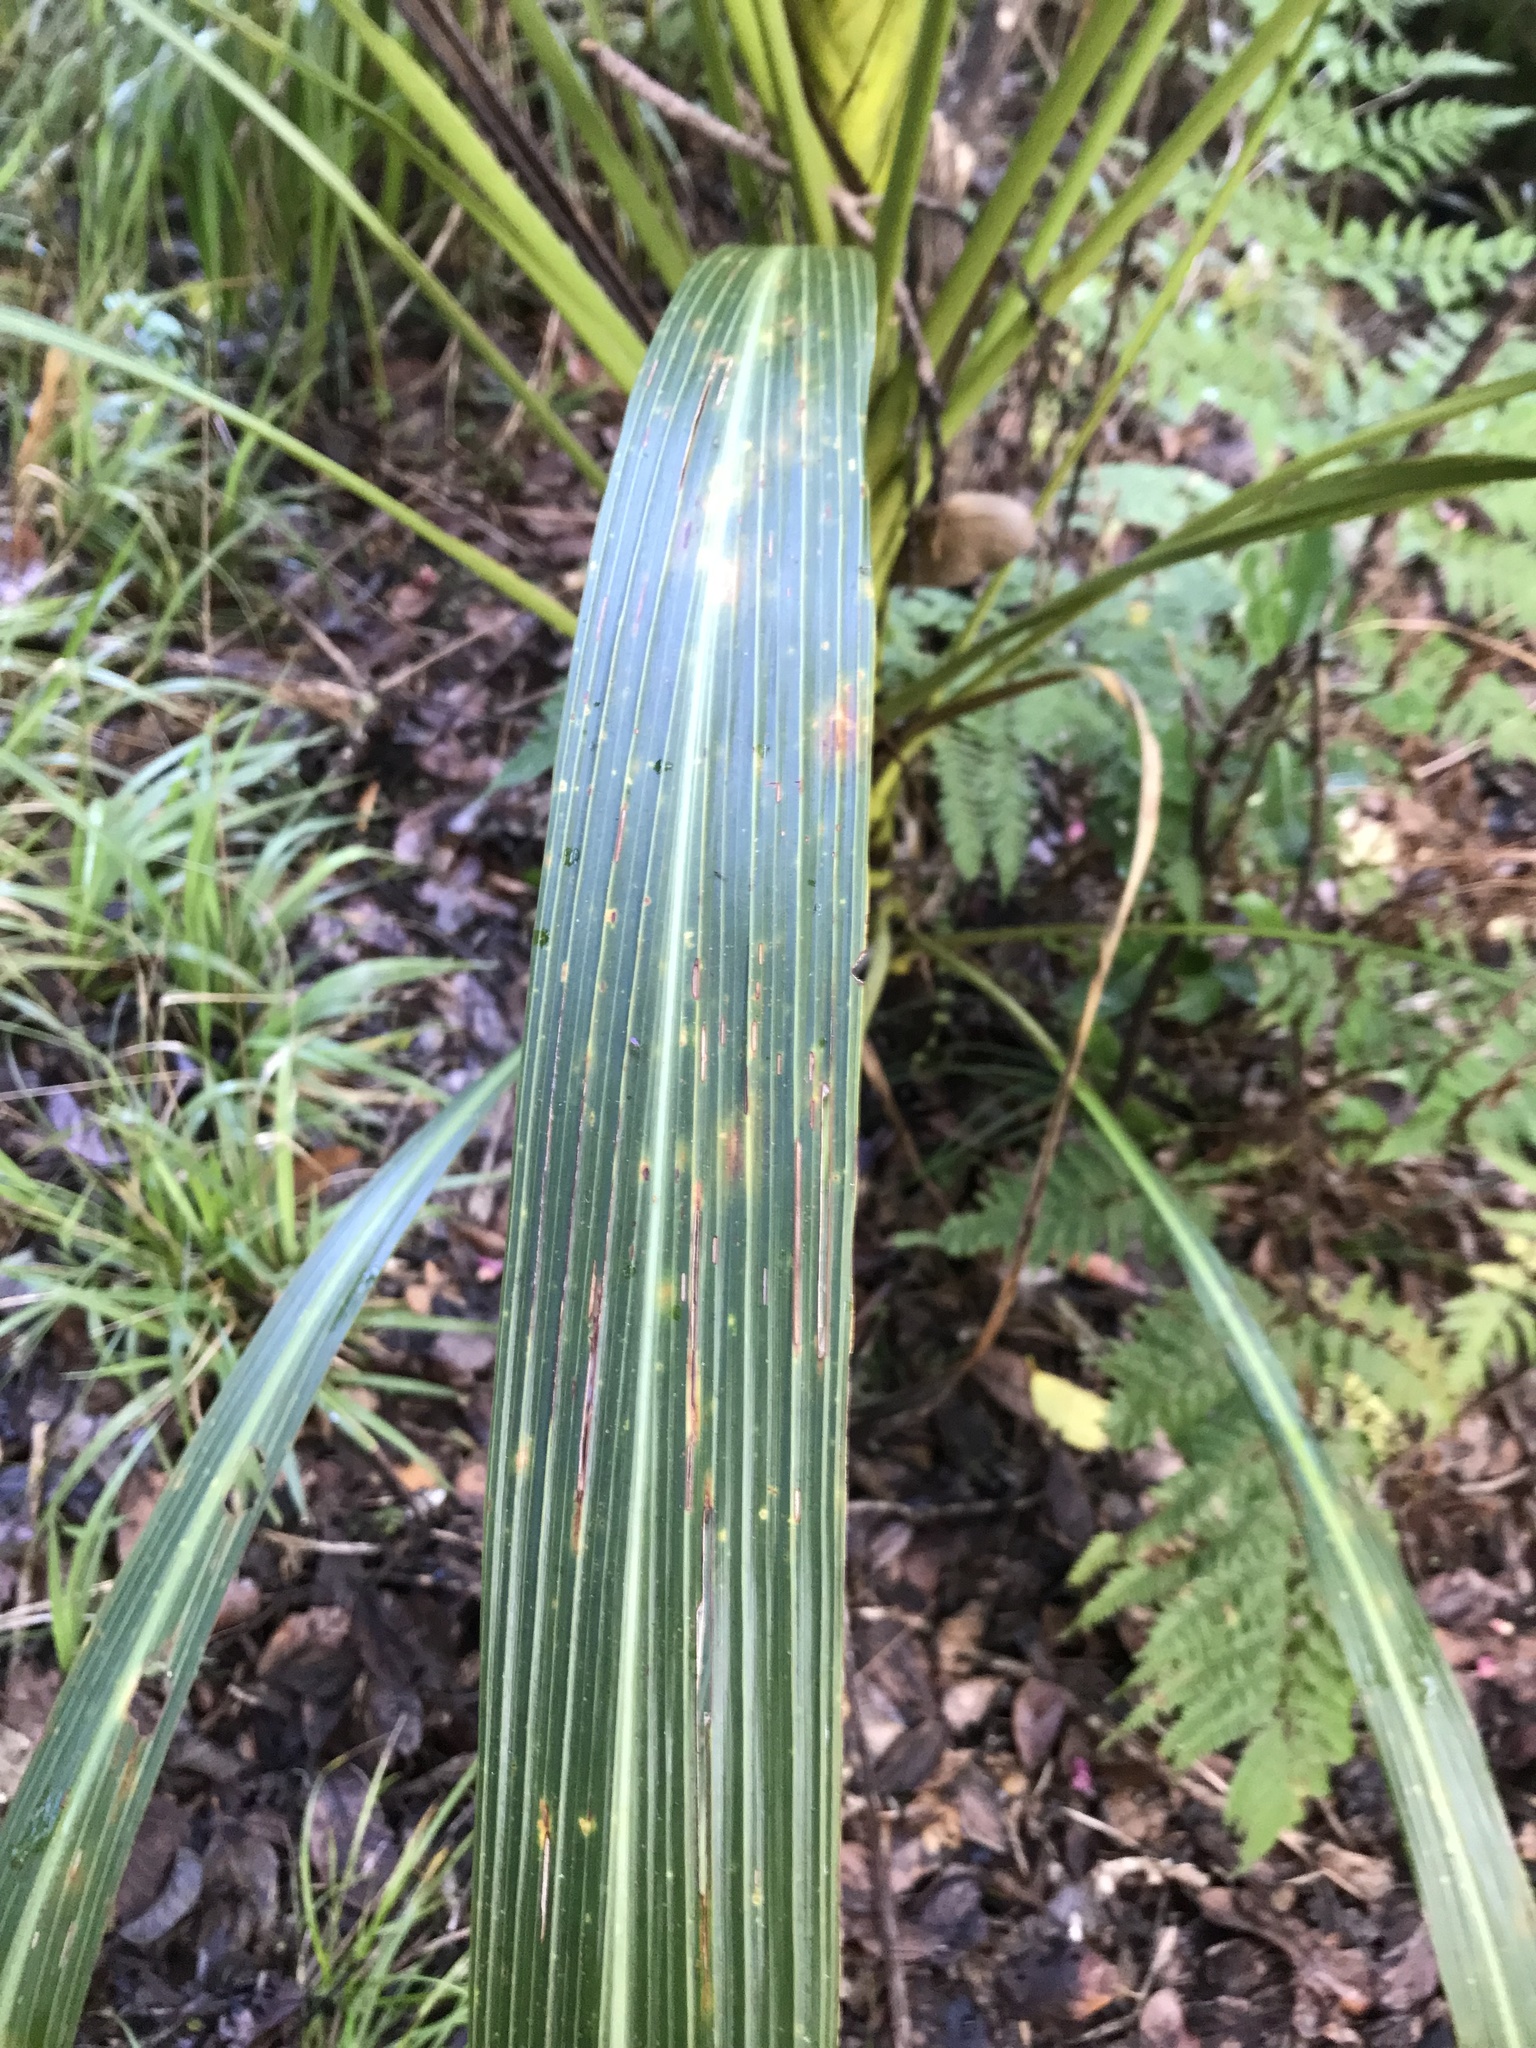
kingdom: Plantae
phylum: Tracheophyta
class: Liliopsida
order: Asparagales
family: Asparagaceae
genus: Cordyline
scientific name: Cordyline banksii
